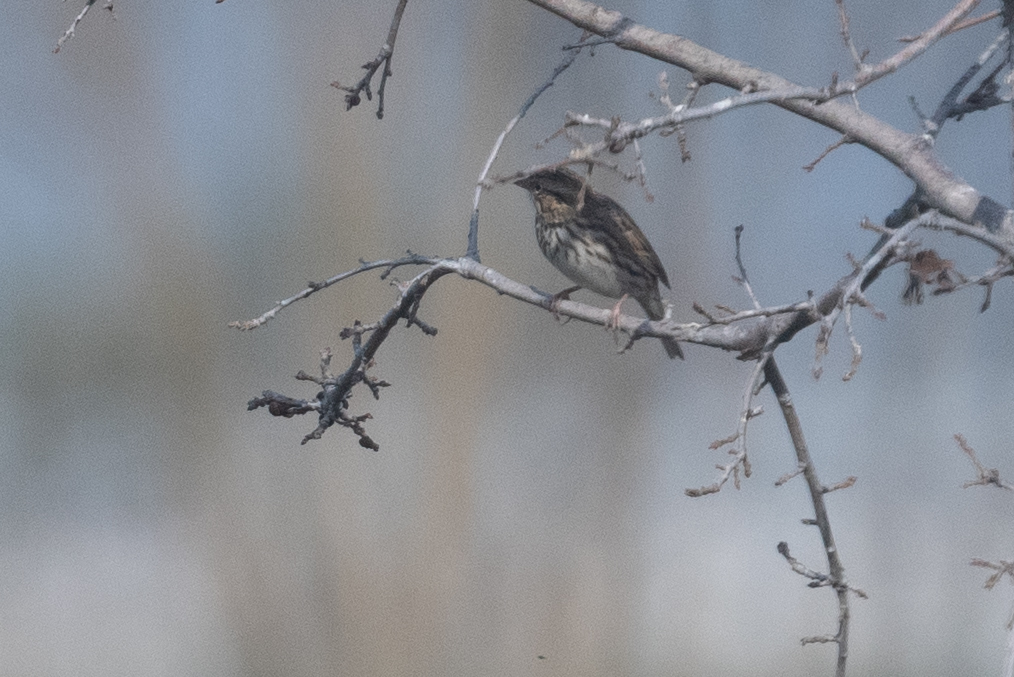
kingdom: Animalia
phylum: Chordata
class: Aves
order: Passeriformes
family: Passerellidae
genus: Melospiza
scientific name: Melospiza melodia
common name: Song sparrow
